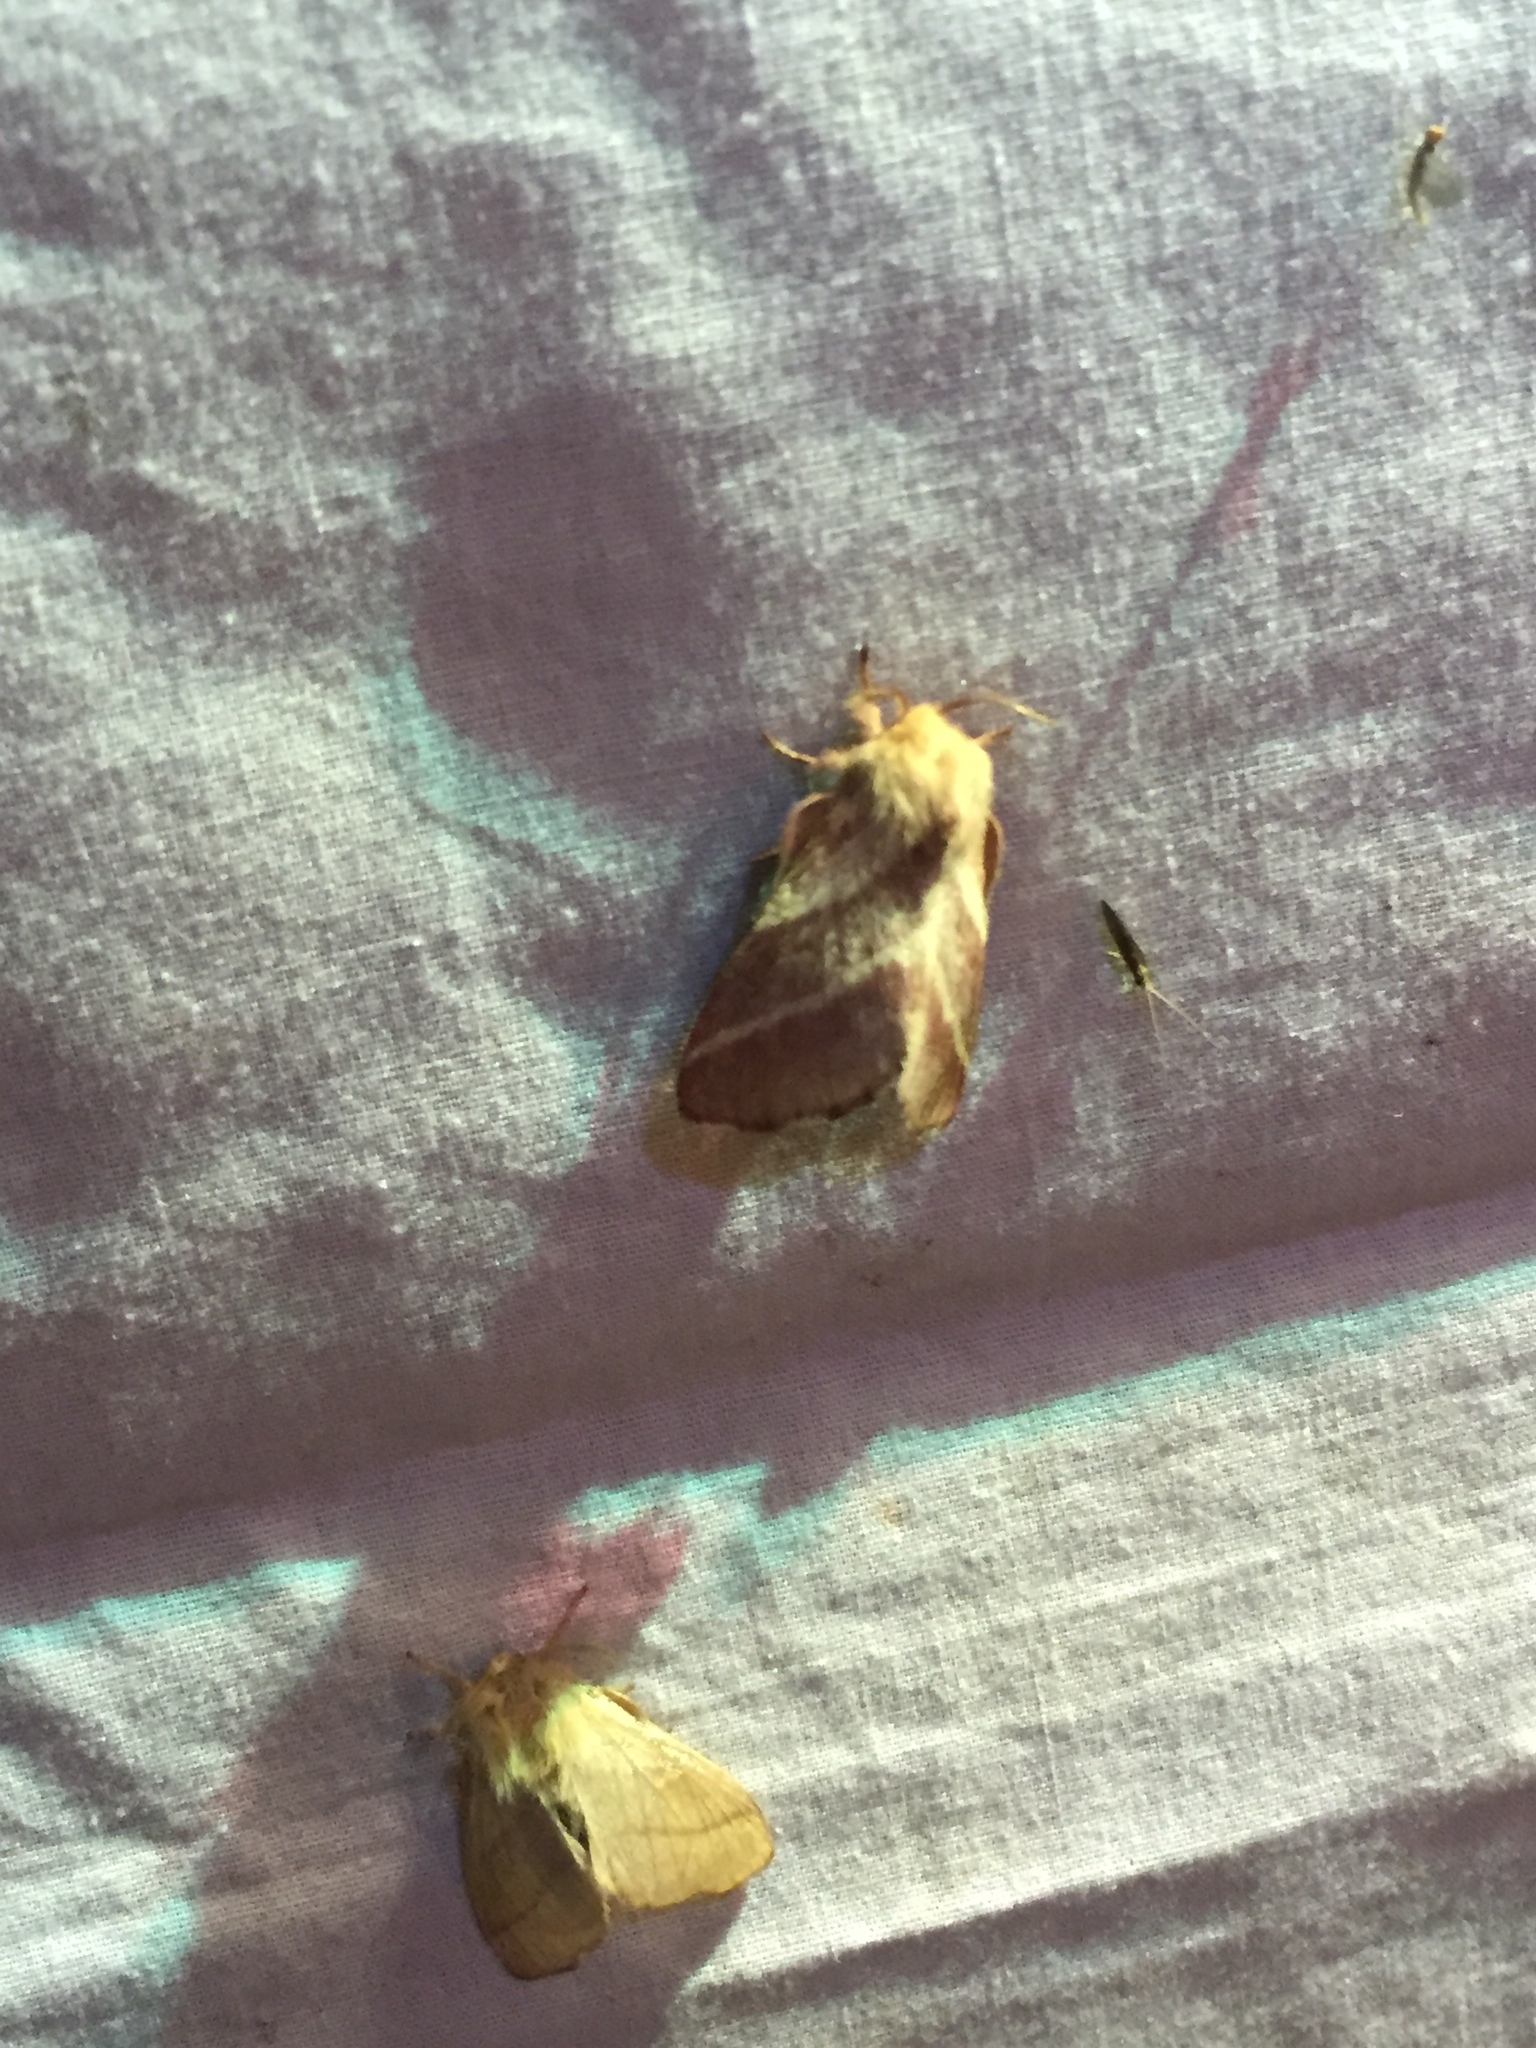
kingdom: Animalia
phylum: Arthropoda
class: Insecta
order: Lepidoptera
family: Lasiocampidae
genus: Malacosoma
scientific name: Malacosoma americana
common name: Eastern tent caterpillar moth
